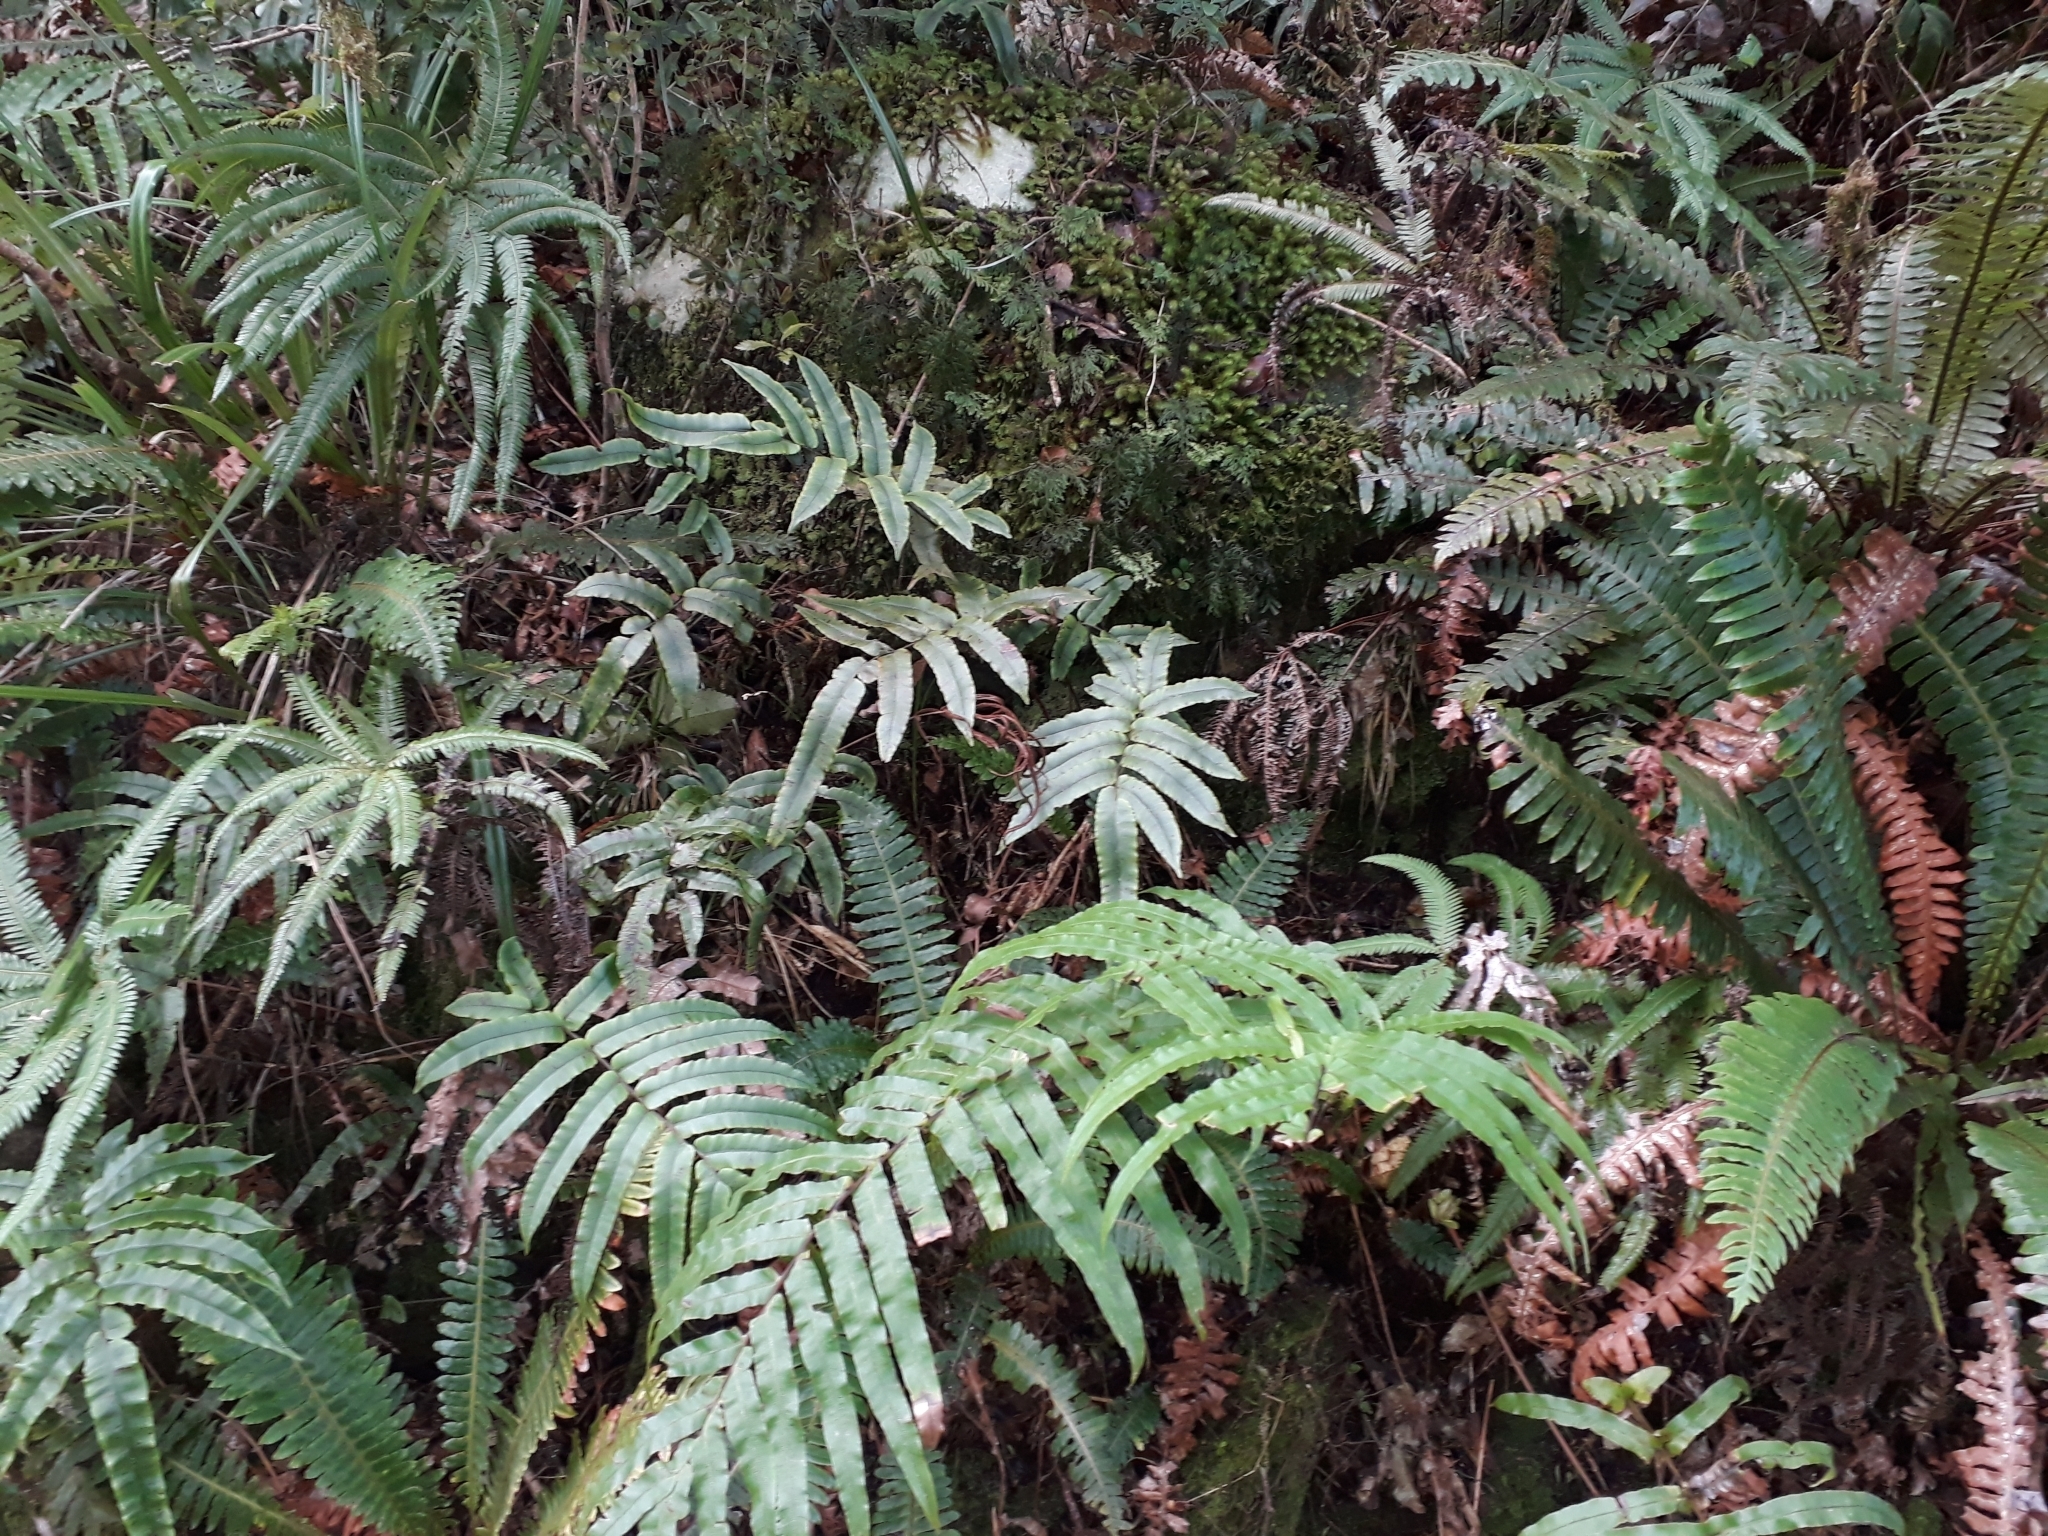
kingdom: Plantae
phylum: Tracheophyta
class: Polypodiopsida
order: Polypodiales
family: Blechnaceae
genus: Parablechnum
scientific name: Parablechnum procerum
